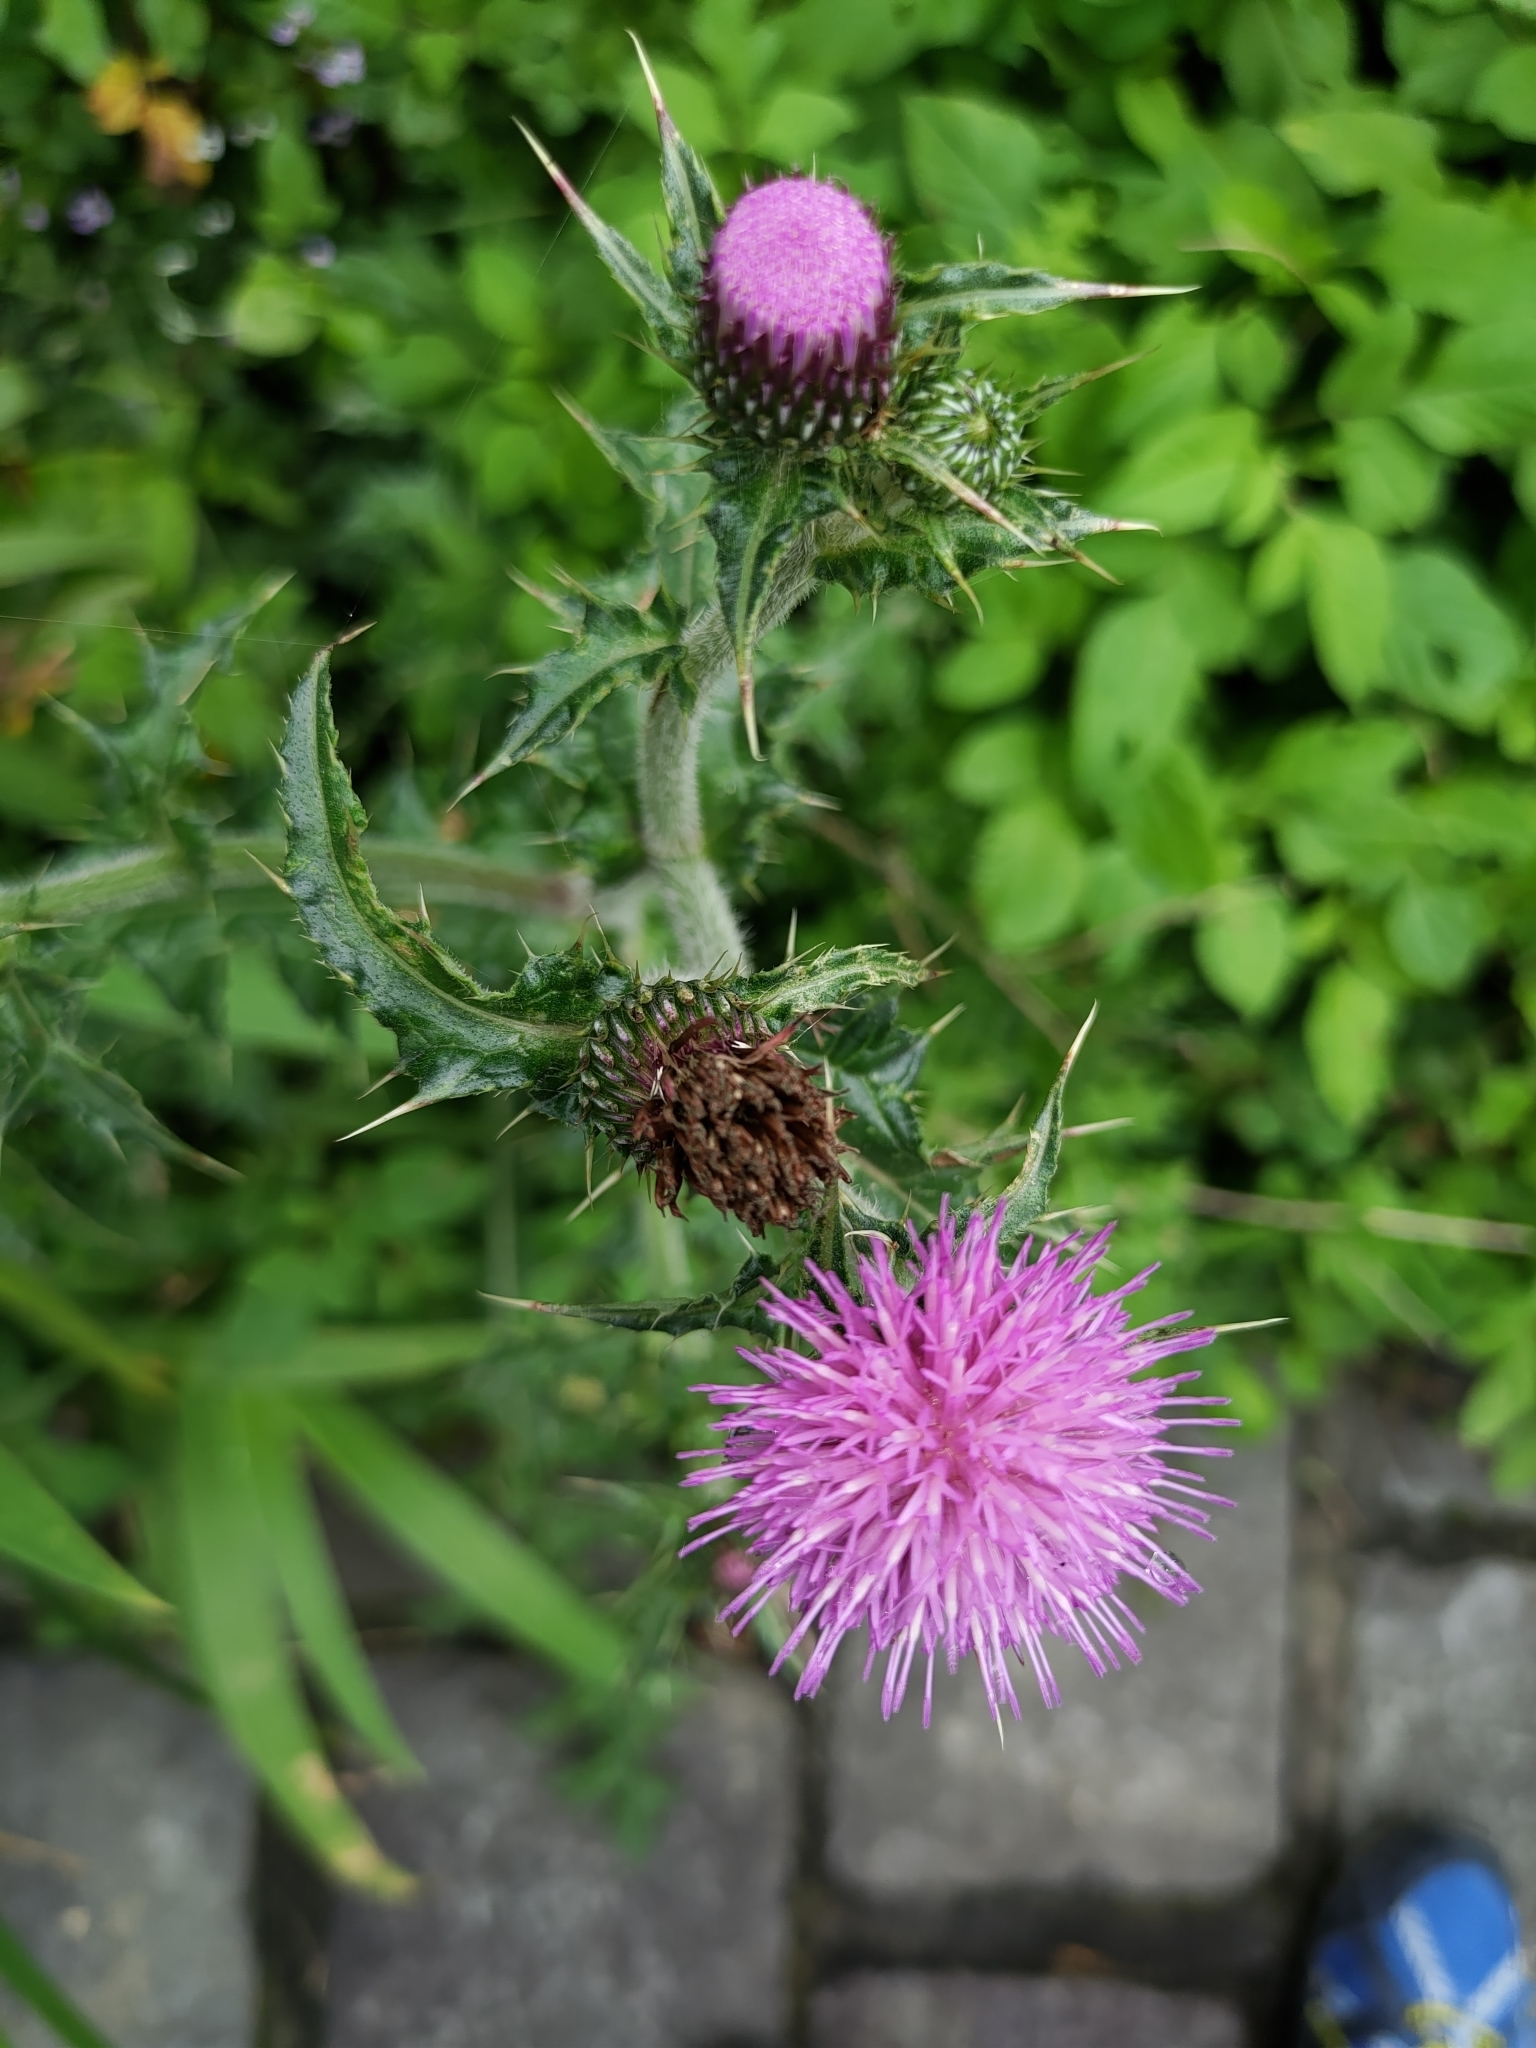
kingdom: Plantae
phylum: Tracheophyta
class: Magnoliopsida
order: Asterales
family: Asteraceae
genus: Cirsium
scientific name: Cirsium japonicum
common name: Japanese thistle
